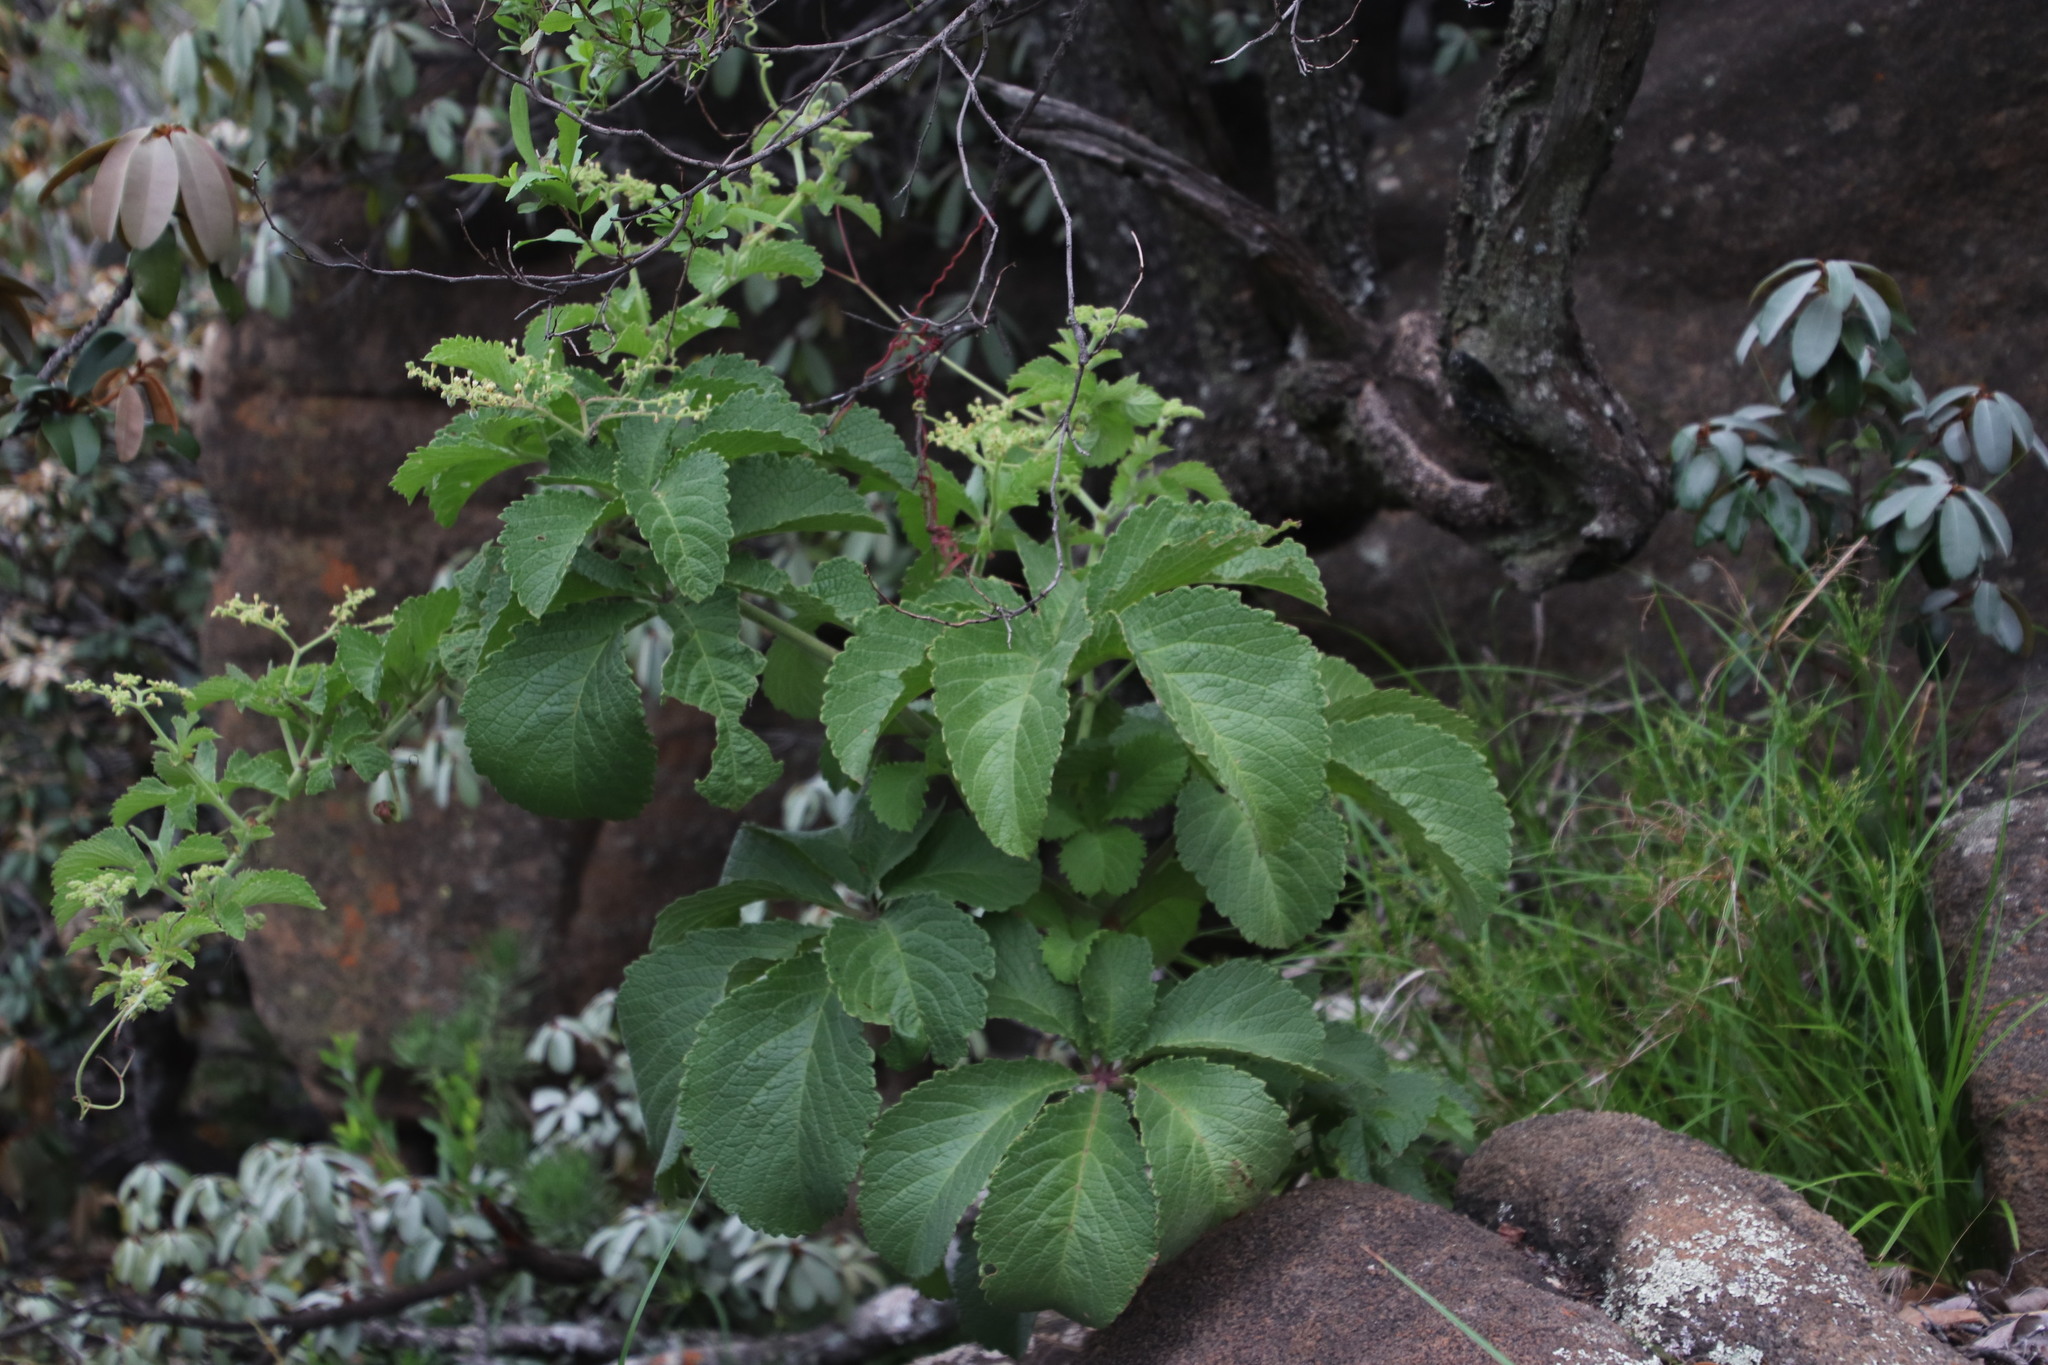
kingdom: Plantae
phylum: Tracheophyta
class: Magnoliopsida
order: Vitales
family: Vitaceae
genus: Cyphostemma
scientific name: Cyphostemma lanigerum
